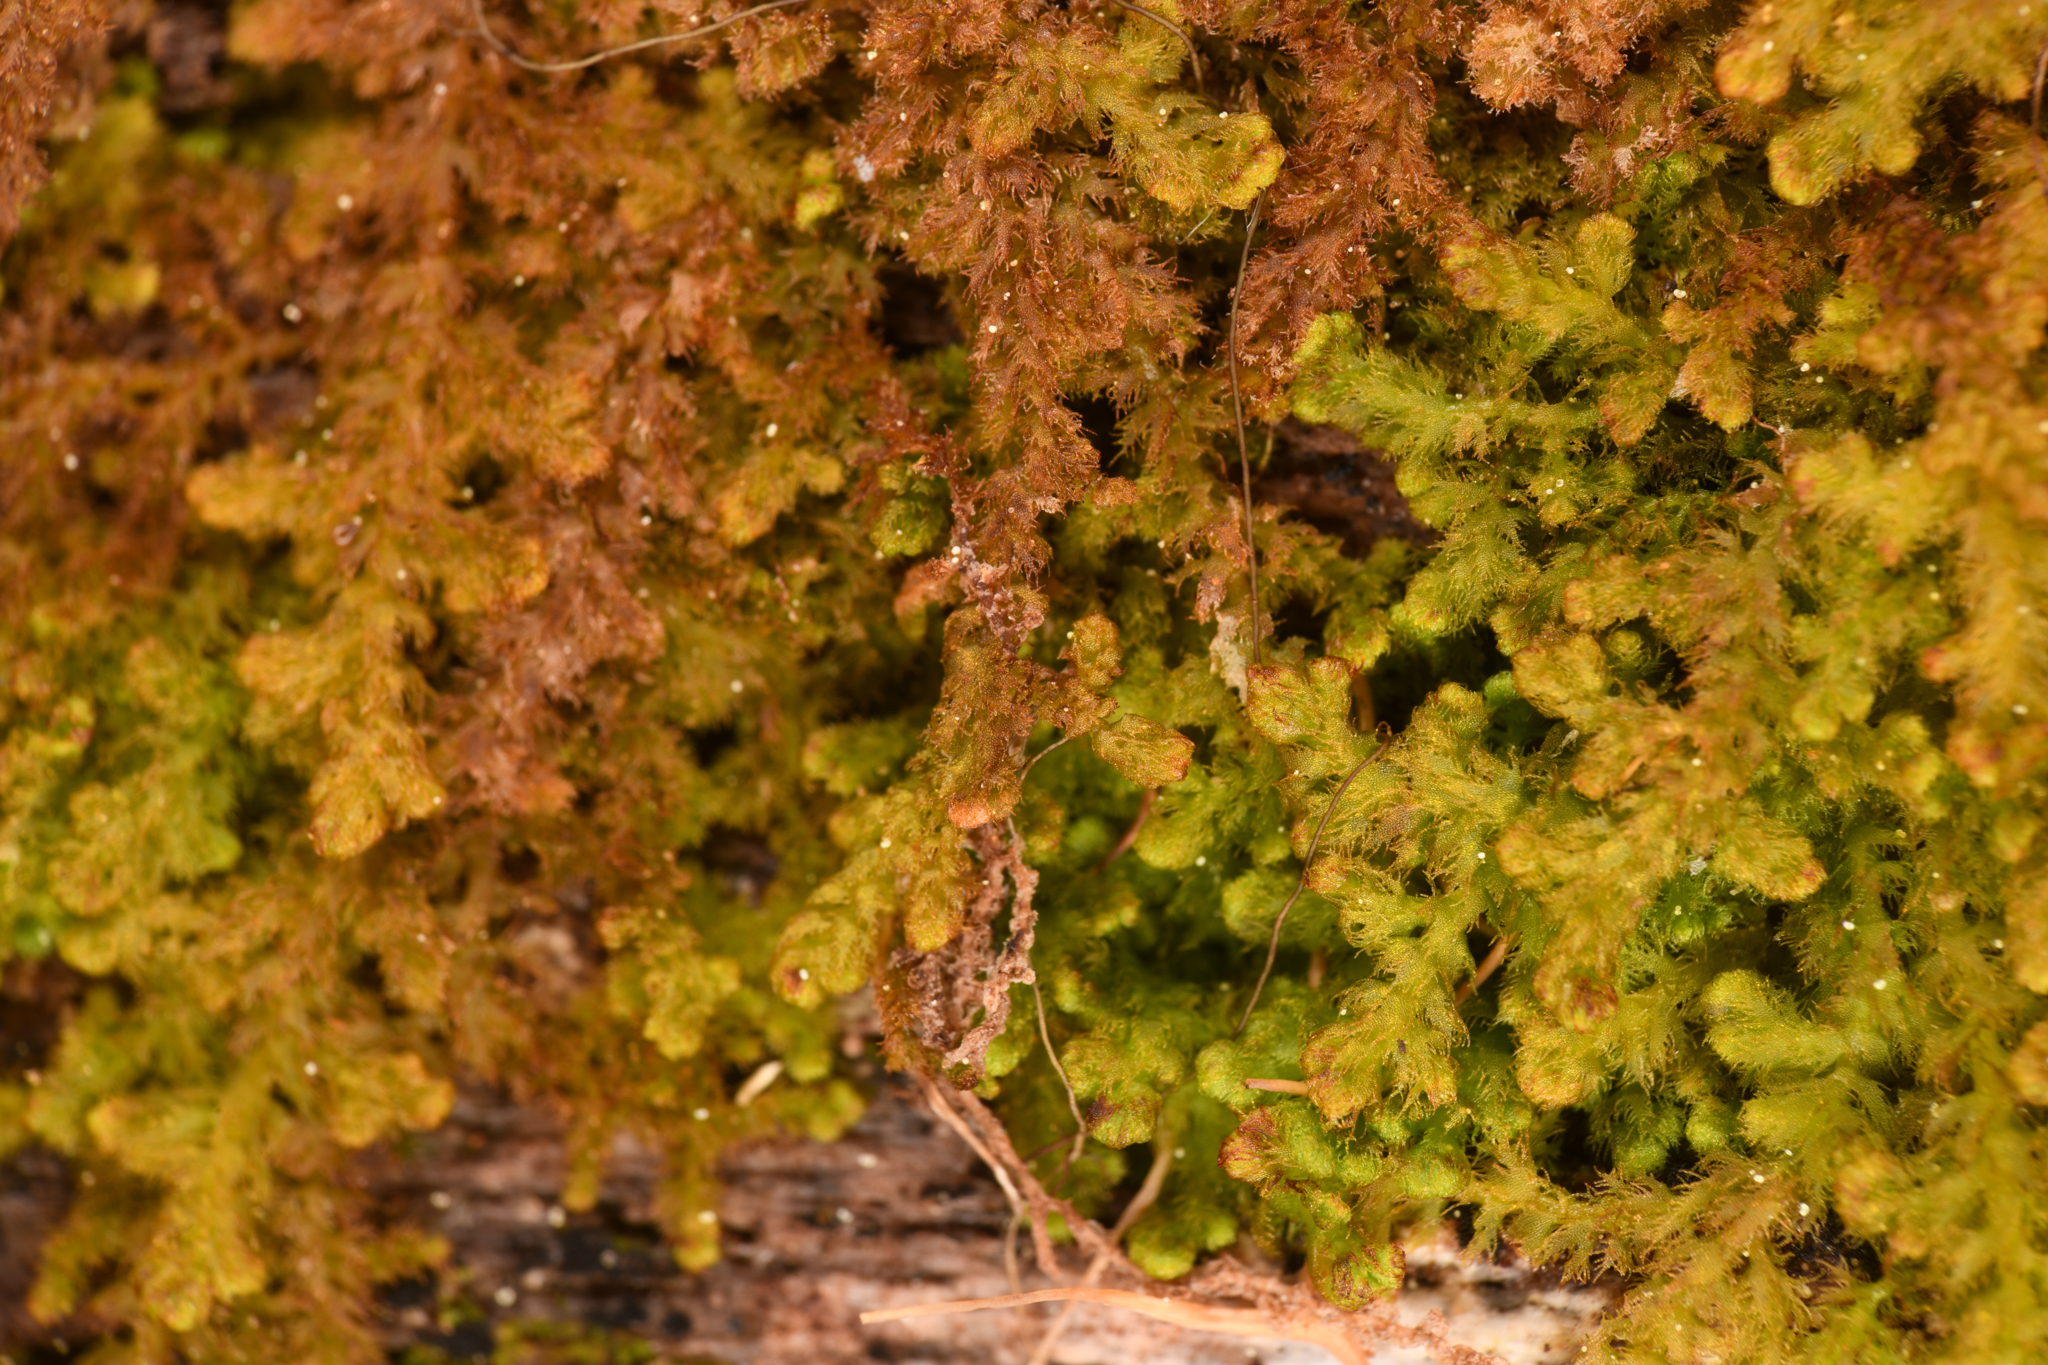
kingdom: Plantae
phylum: Marchantiophyta
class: Jungermanniopsida
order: Ptilidiales
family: Ptilidiaceae
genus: Ptilidium
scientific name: Ptilidium pulcherrimum
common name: Tree fringewort
